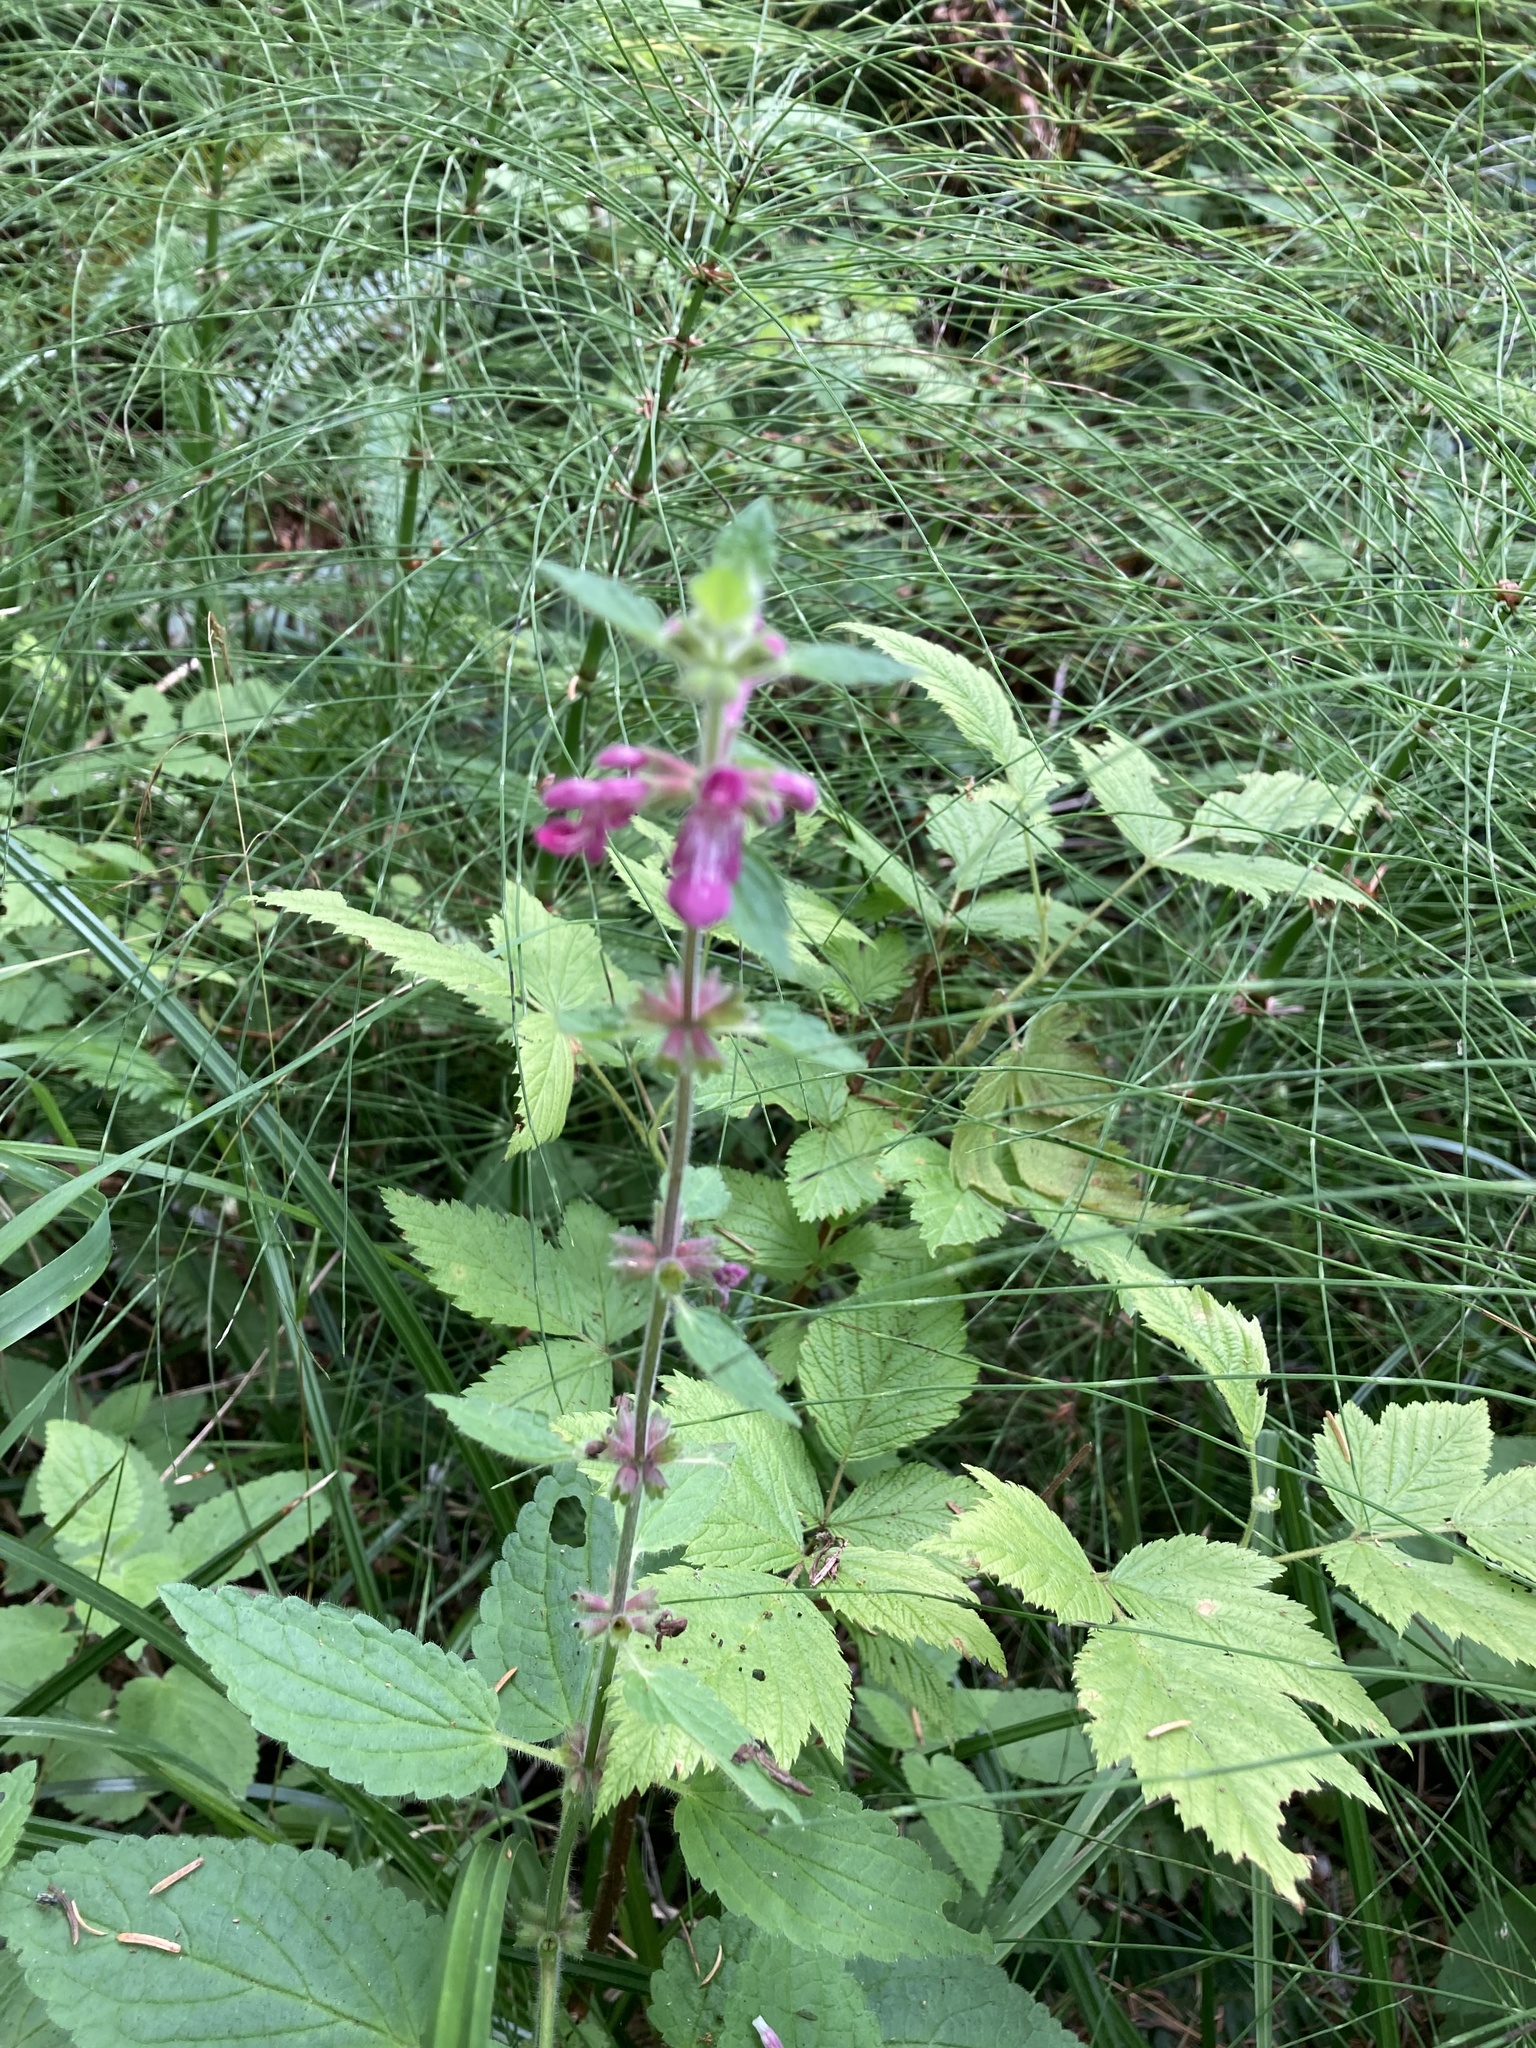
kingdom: Plantae
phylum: Tracheophyta
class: Magnoliopsida
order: Lamiales
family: Lamiaceae
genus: Stachys
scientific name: Stachys chamissonis
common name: Coastal hedge-nettle
